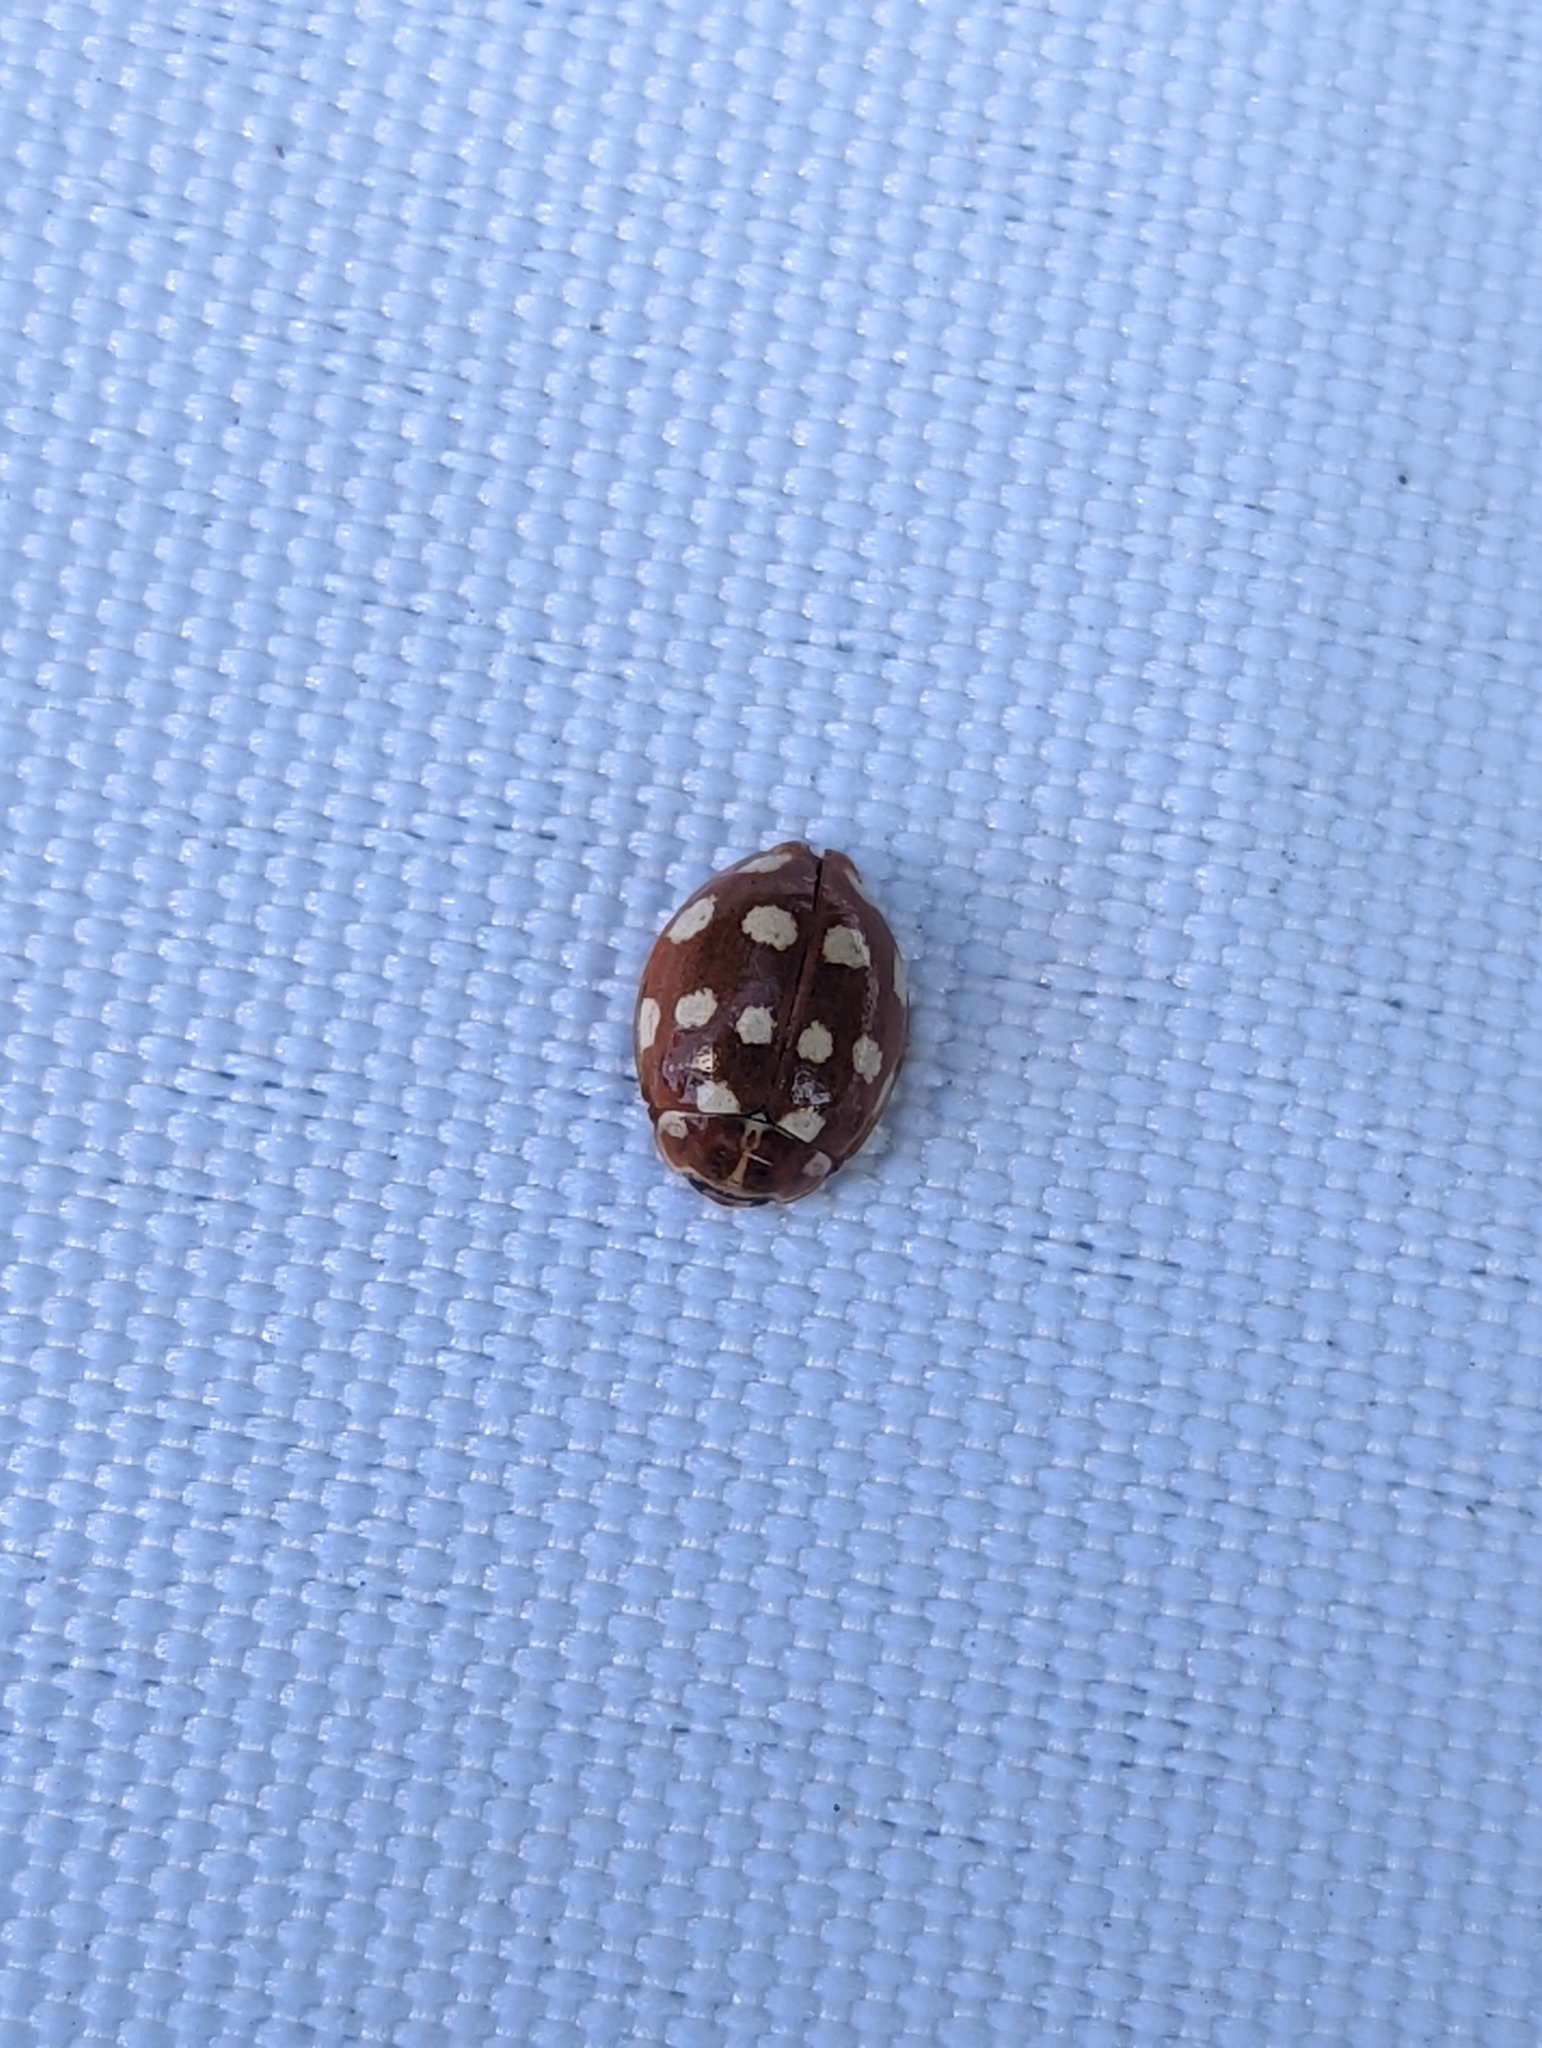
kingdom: Animalia
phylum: Arthropoda
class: Insecta
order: Coleoptera
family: Coccinellidae
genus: Calvia
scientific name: Calvia quatuordecimguttata
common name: Cream-spot ladybird
